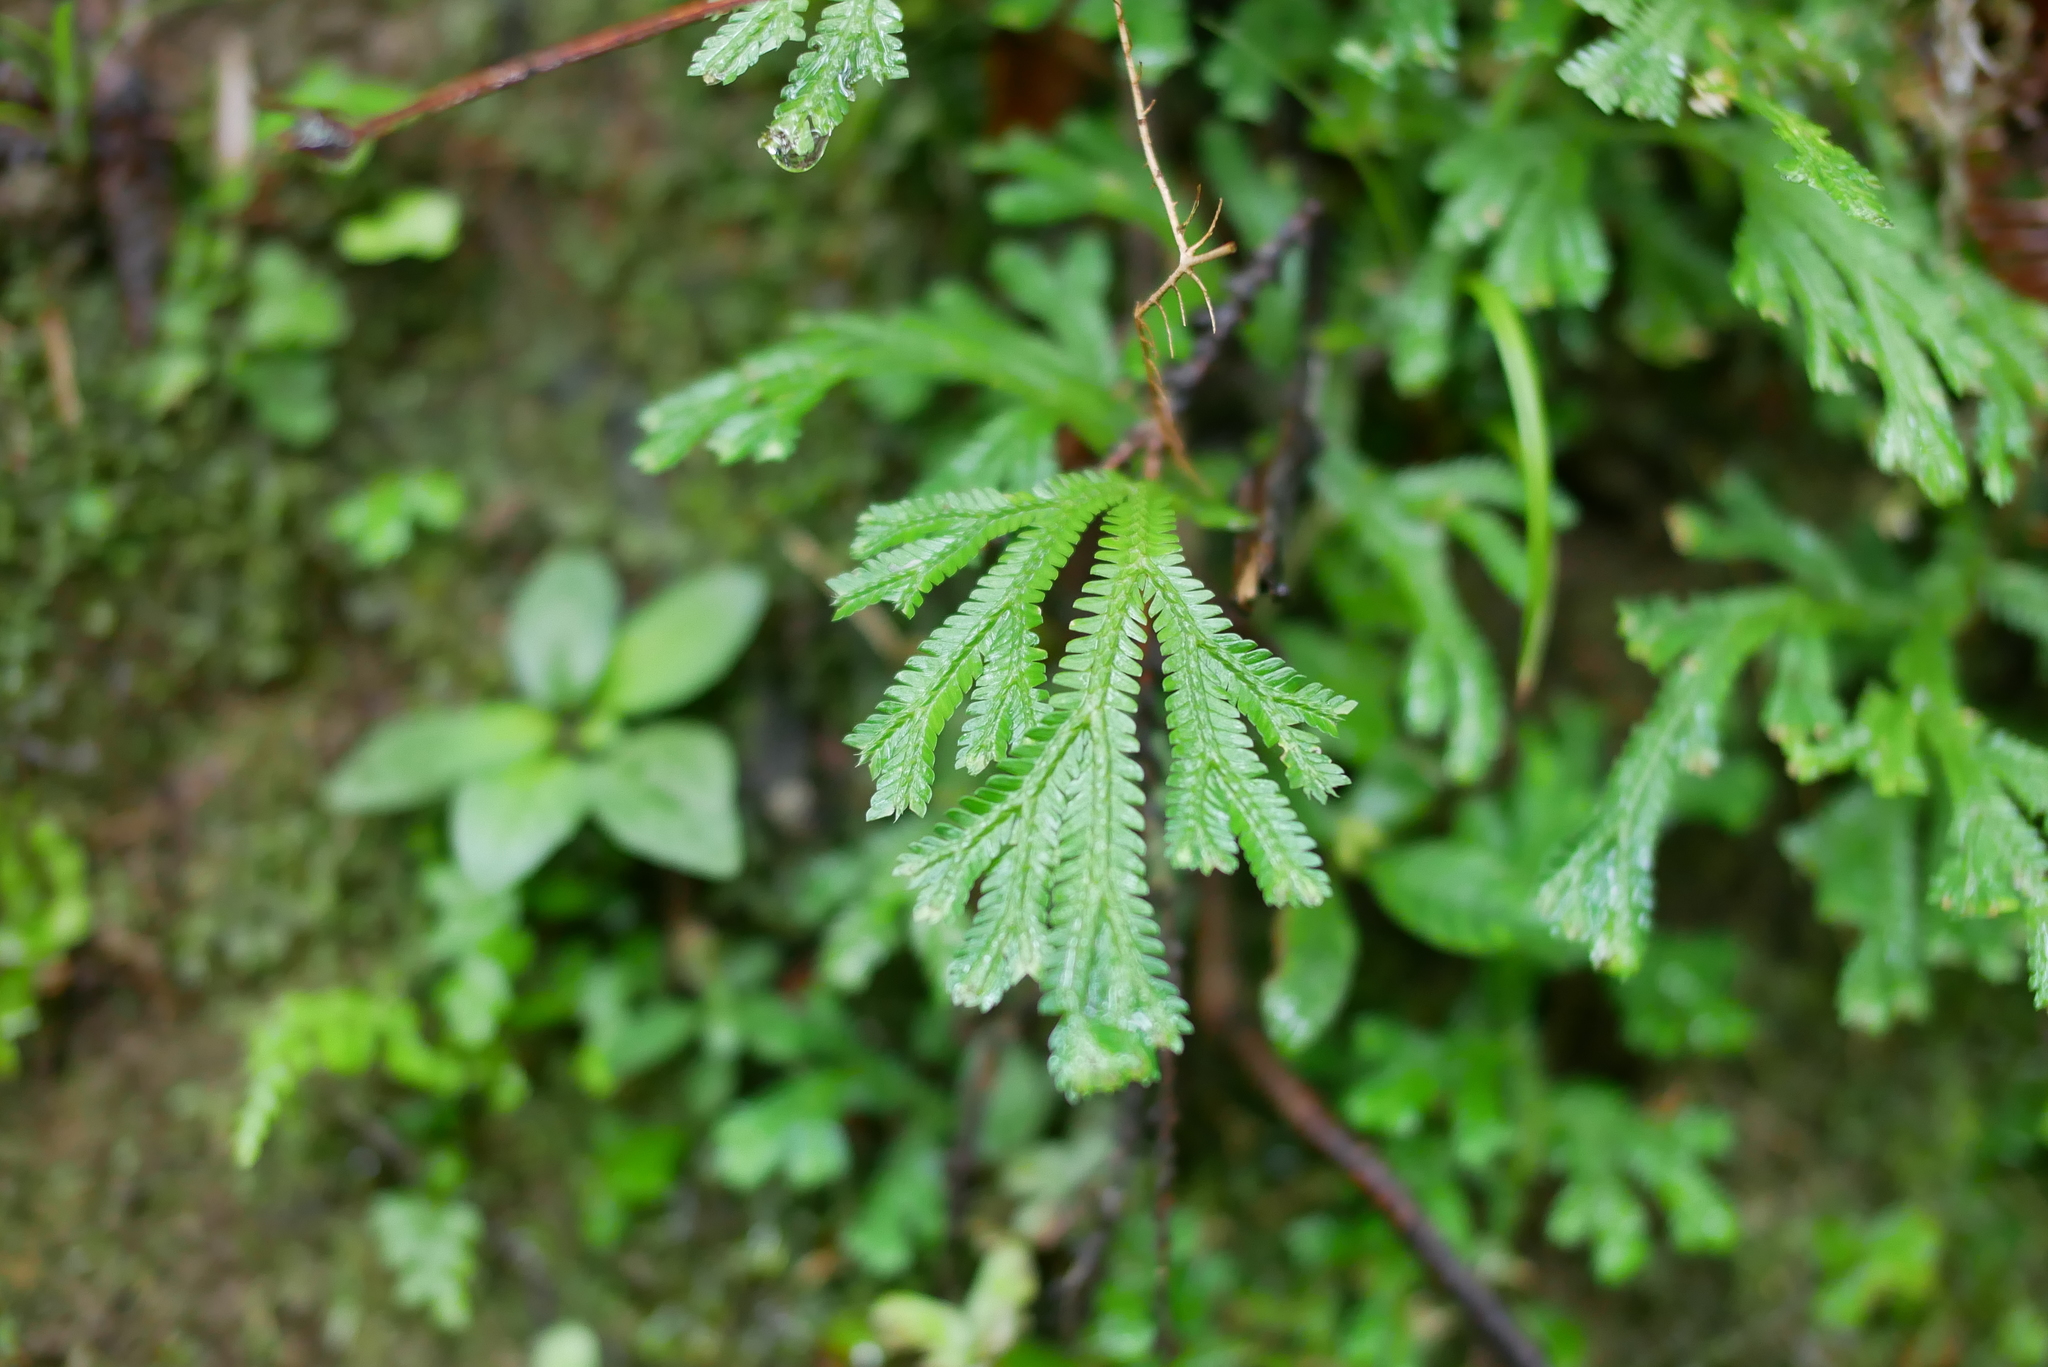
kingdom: Plantae
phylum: Tracheophyta
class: Lycopodiopsida
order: Selaginellales
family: Selaginellaceae
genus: Selaginella
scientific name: Selaginella doederleinii
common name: Greater selaginella
